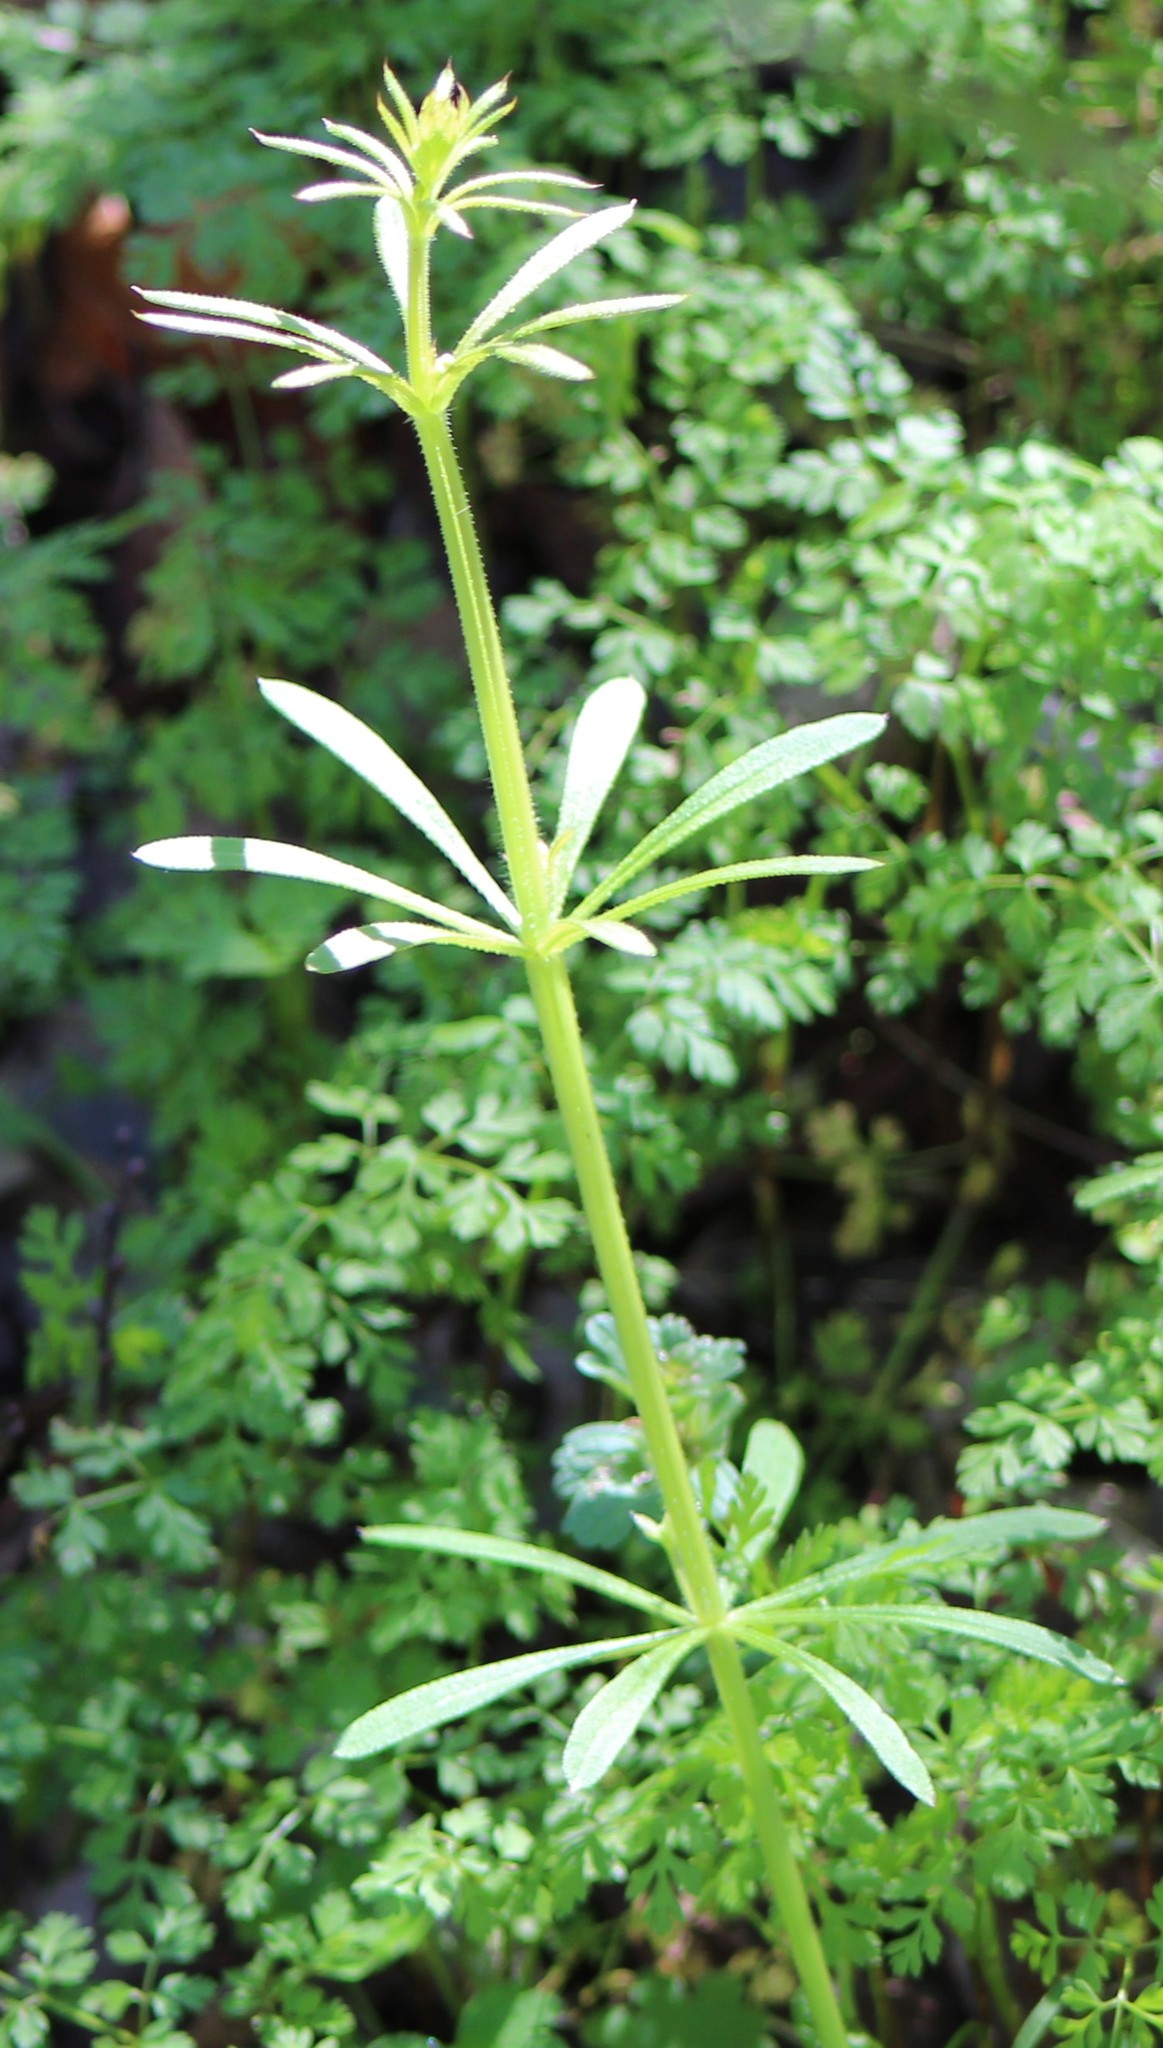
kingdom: Plantae
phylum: Tracheophyta
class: Magnoliopsida
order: Gentianales
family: Rubiaceae
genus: Galium
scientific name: Galium aparine
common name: Cleavers
